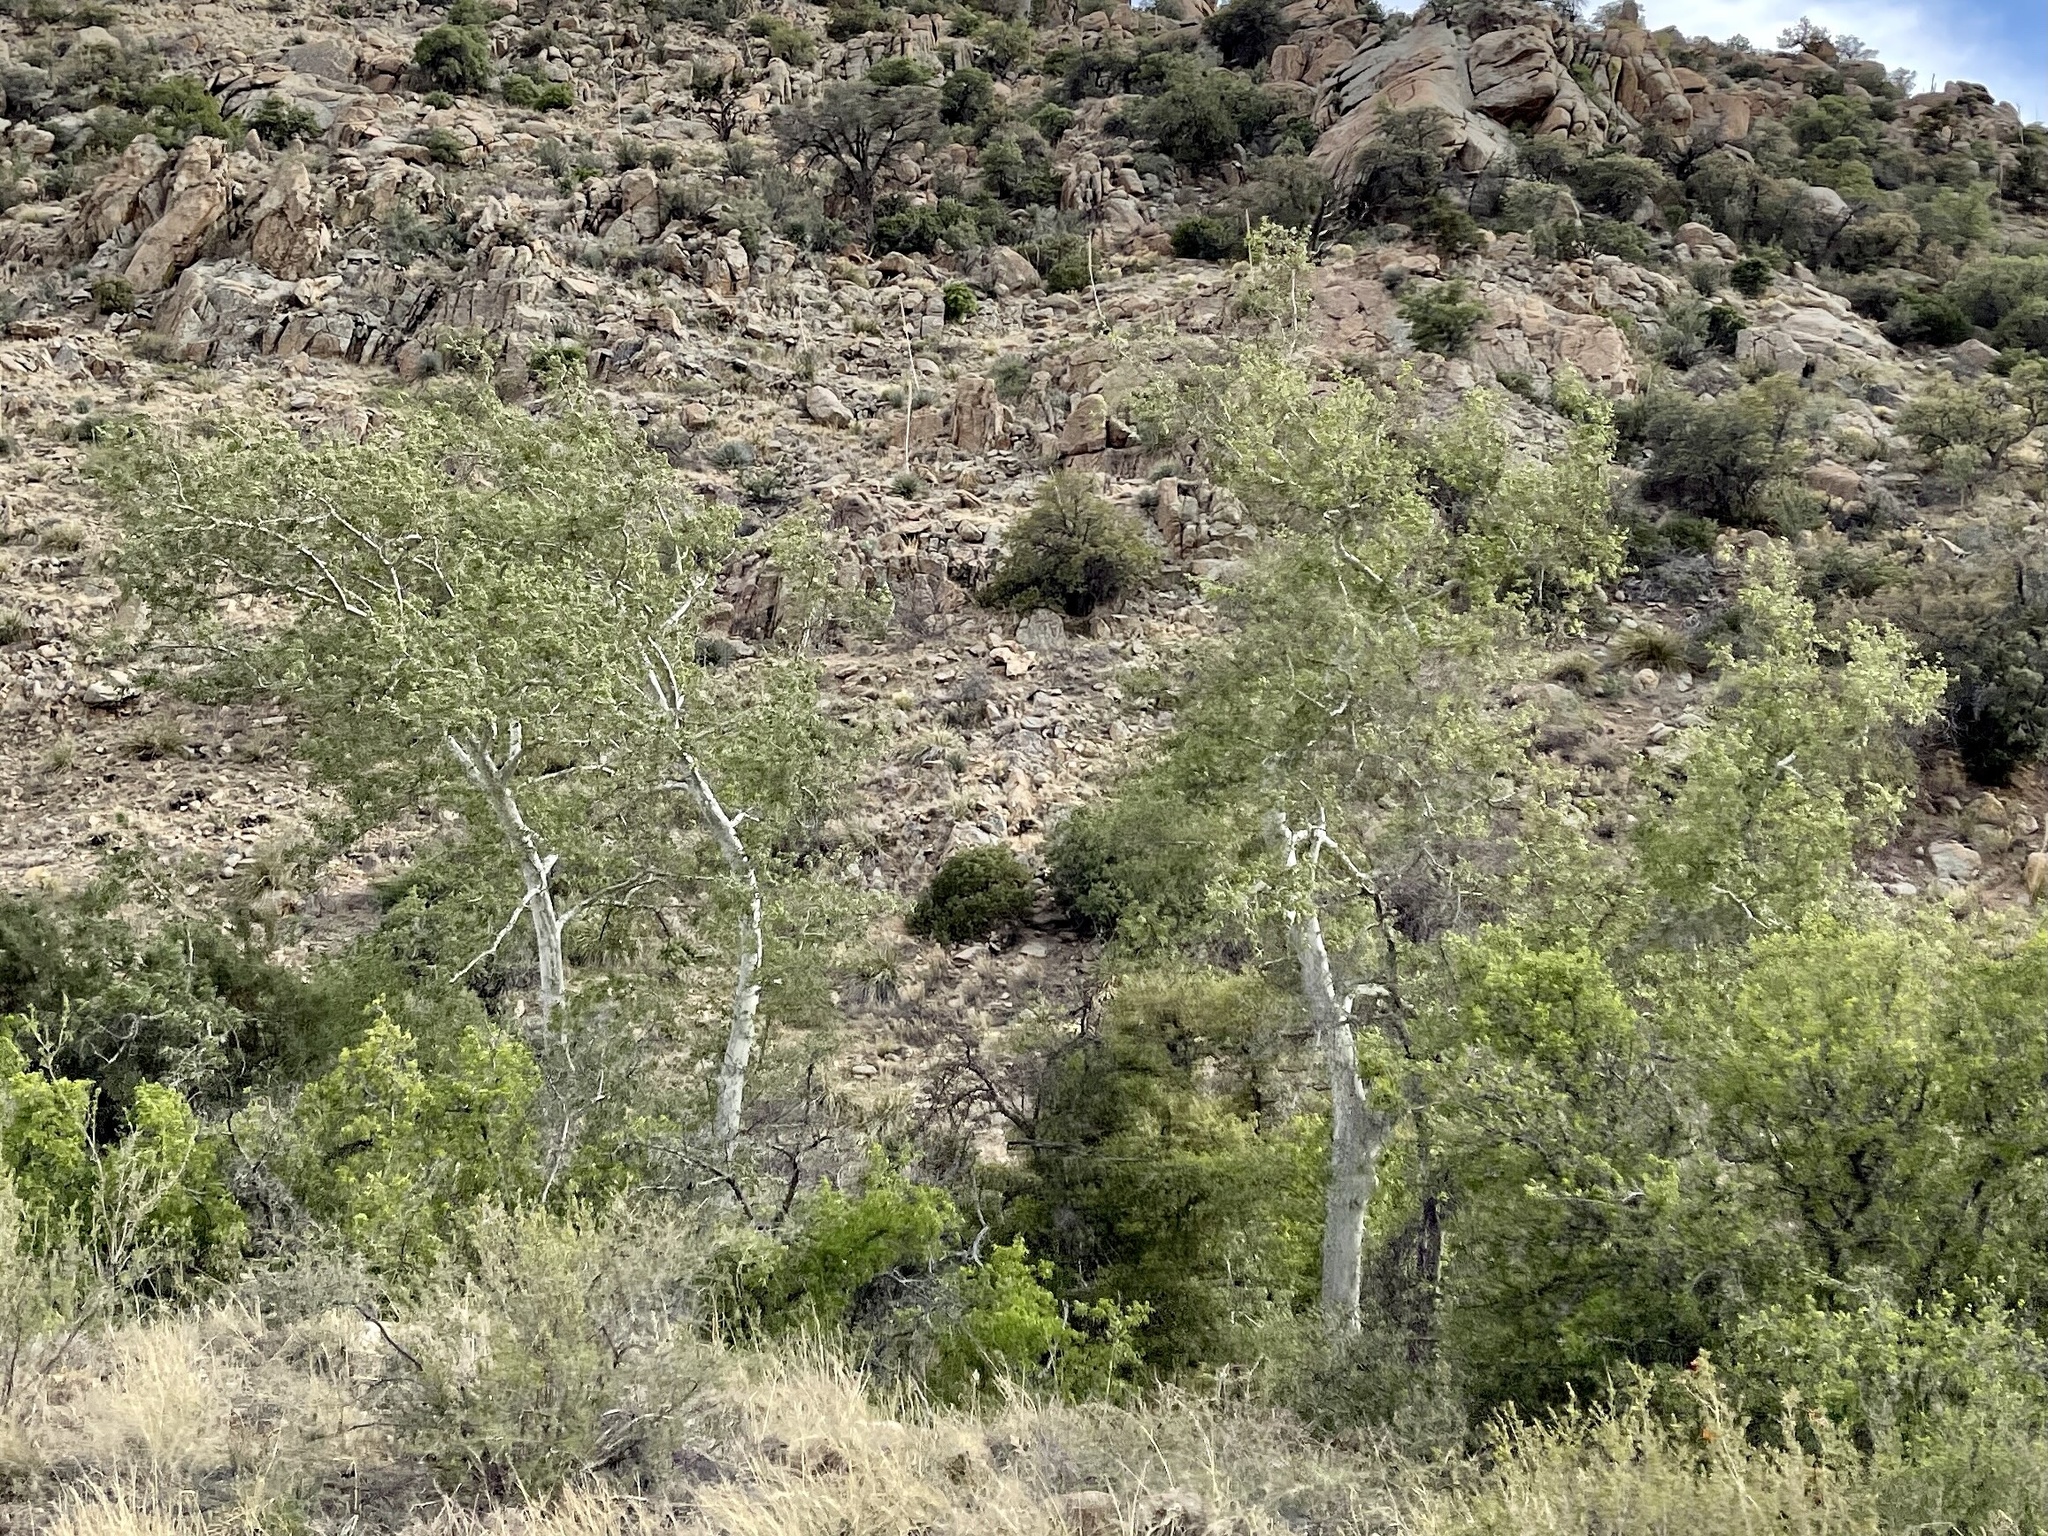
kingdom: Plantae
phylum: Tracheophyta
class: Magnoliopsida
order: Proteales
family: Platanaceae
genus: Platanus
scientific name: Platanus wrightii
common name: Arizona sycamore
